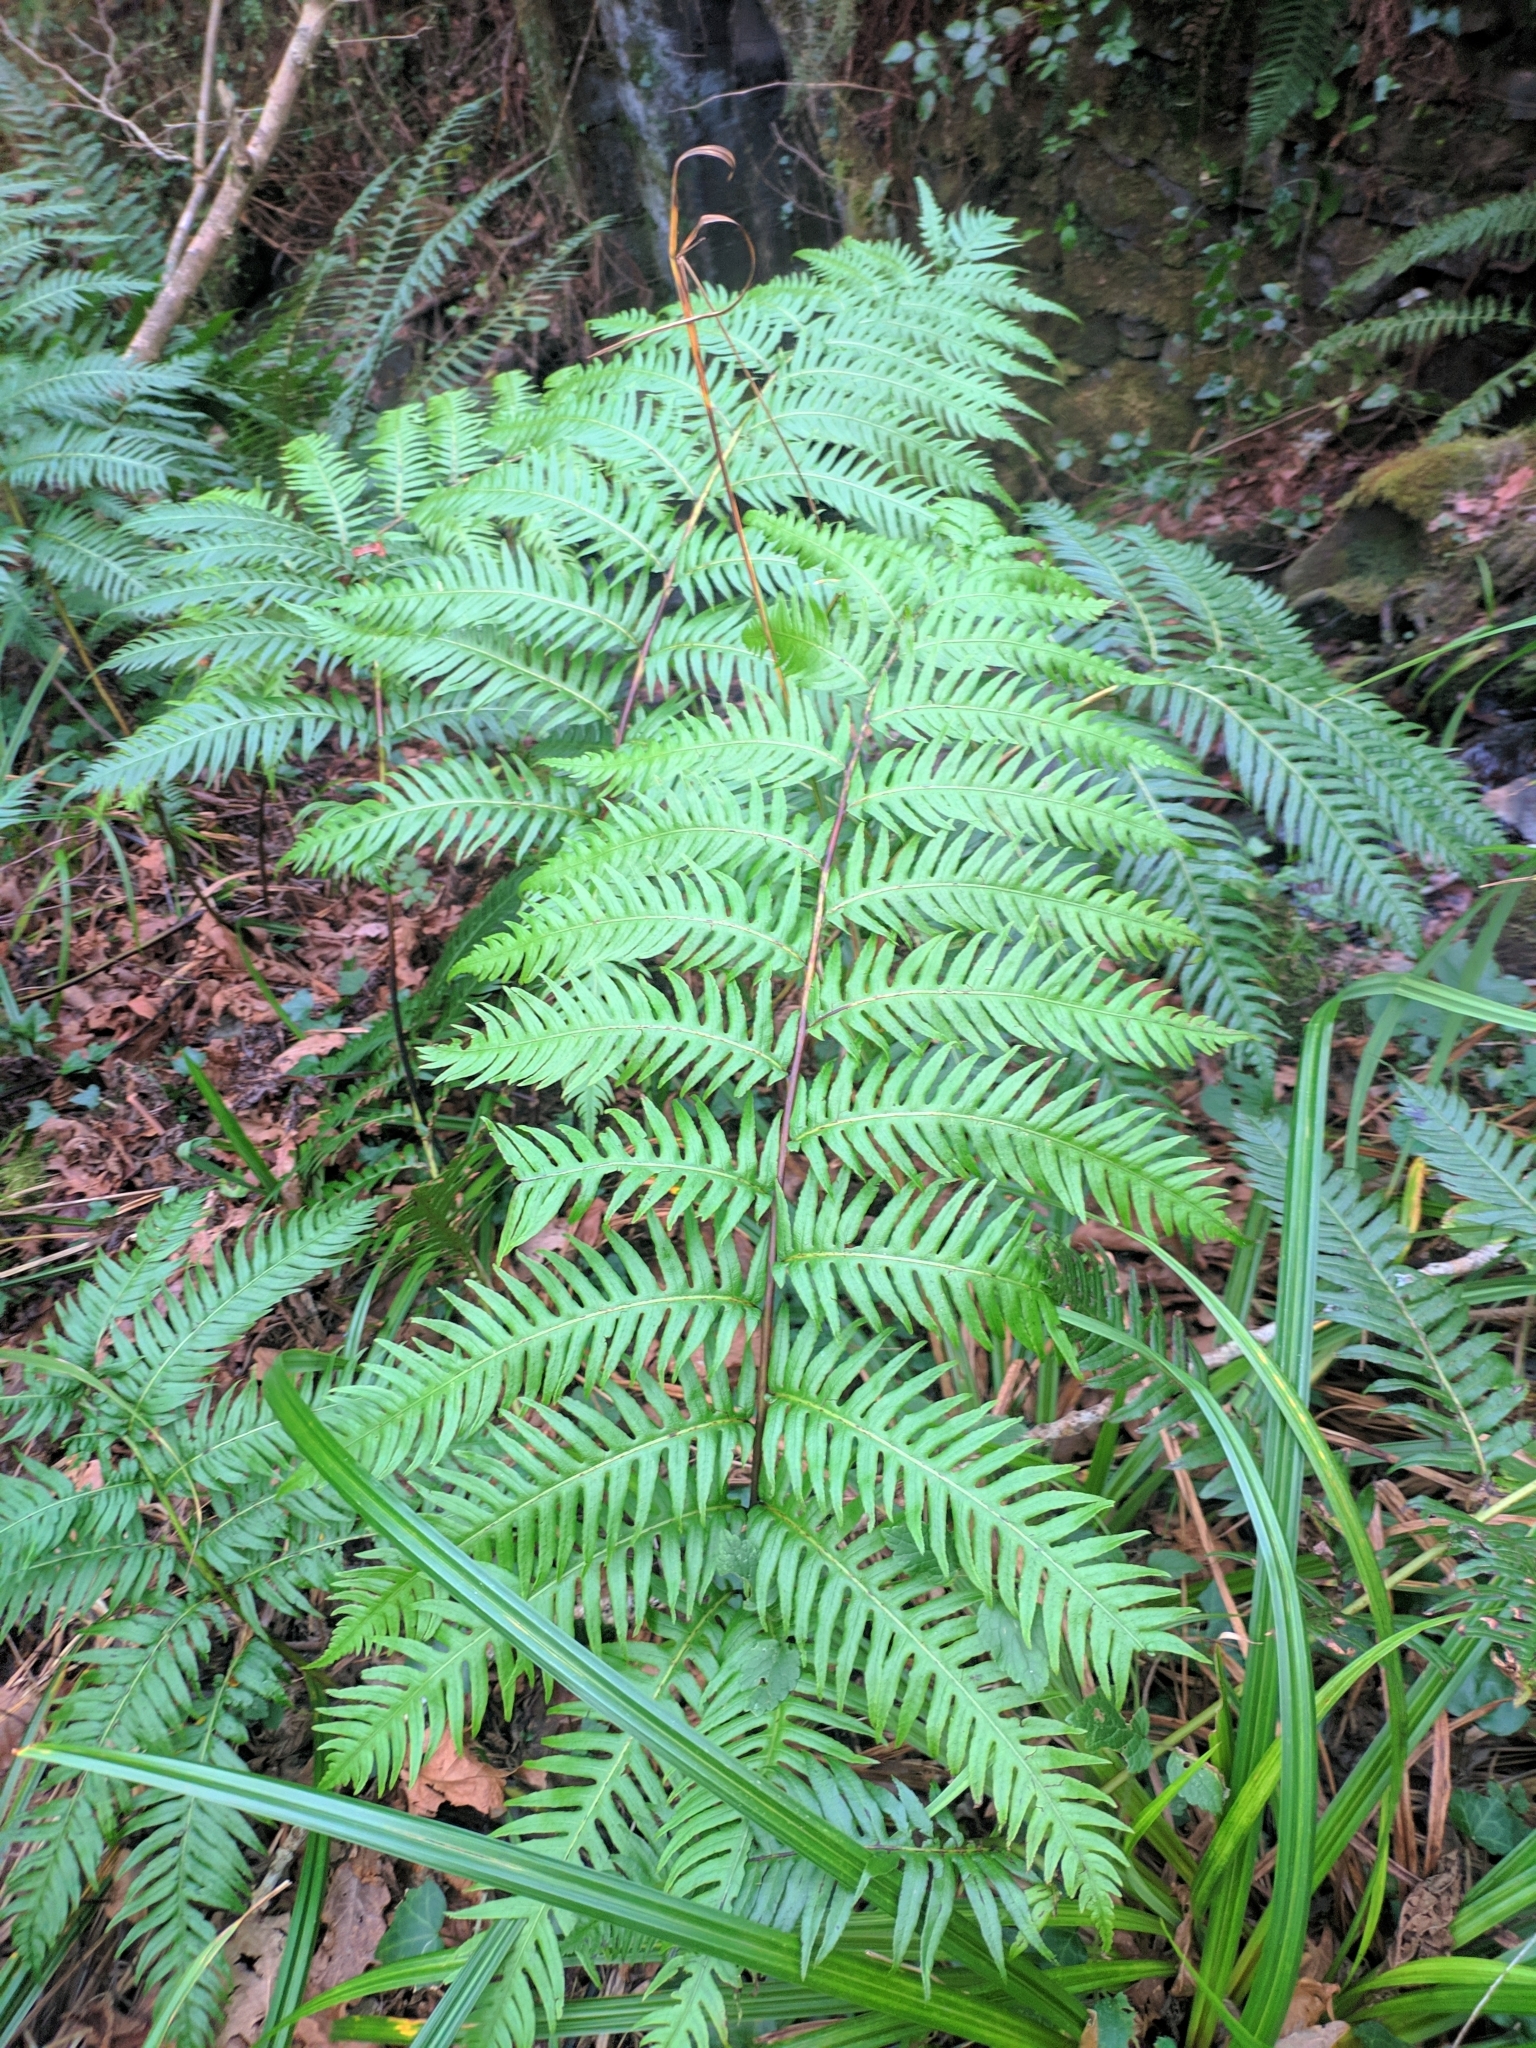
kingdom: Plantae
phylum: Tracheophyta
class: Polypodiopsida
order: Polypodiales
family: Blechnaceae
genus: Woodwardia
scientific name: Woodwardia radicans
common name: Rooting chainfern
